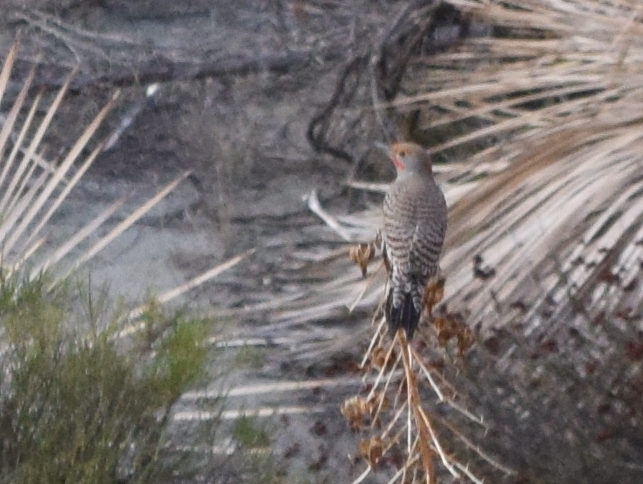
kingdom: Animalia
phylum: Chordata
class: Aves
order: Piciformes
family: Picidae
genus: Colaptes
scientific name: Colaptes auratus
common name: Northern flicker
